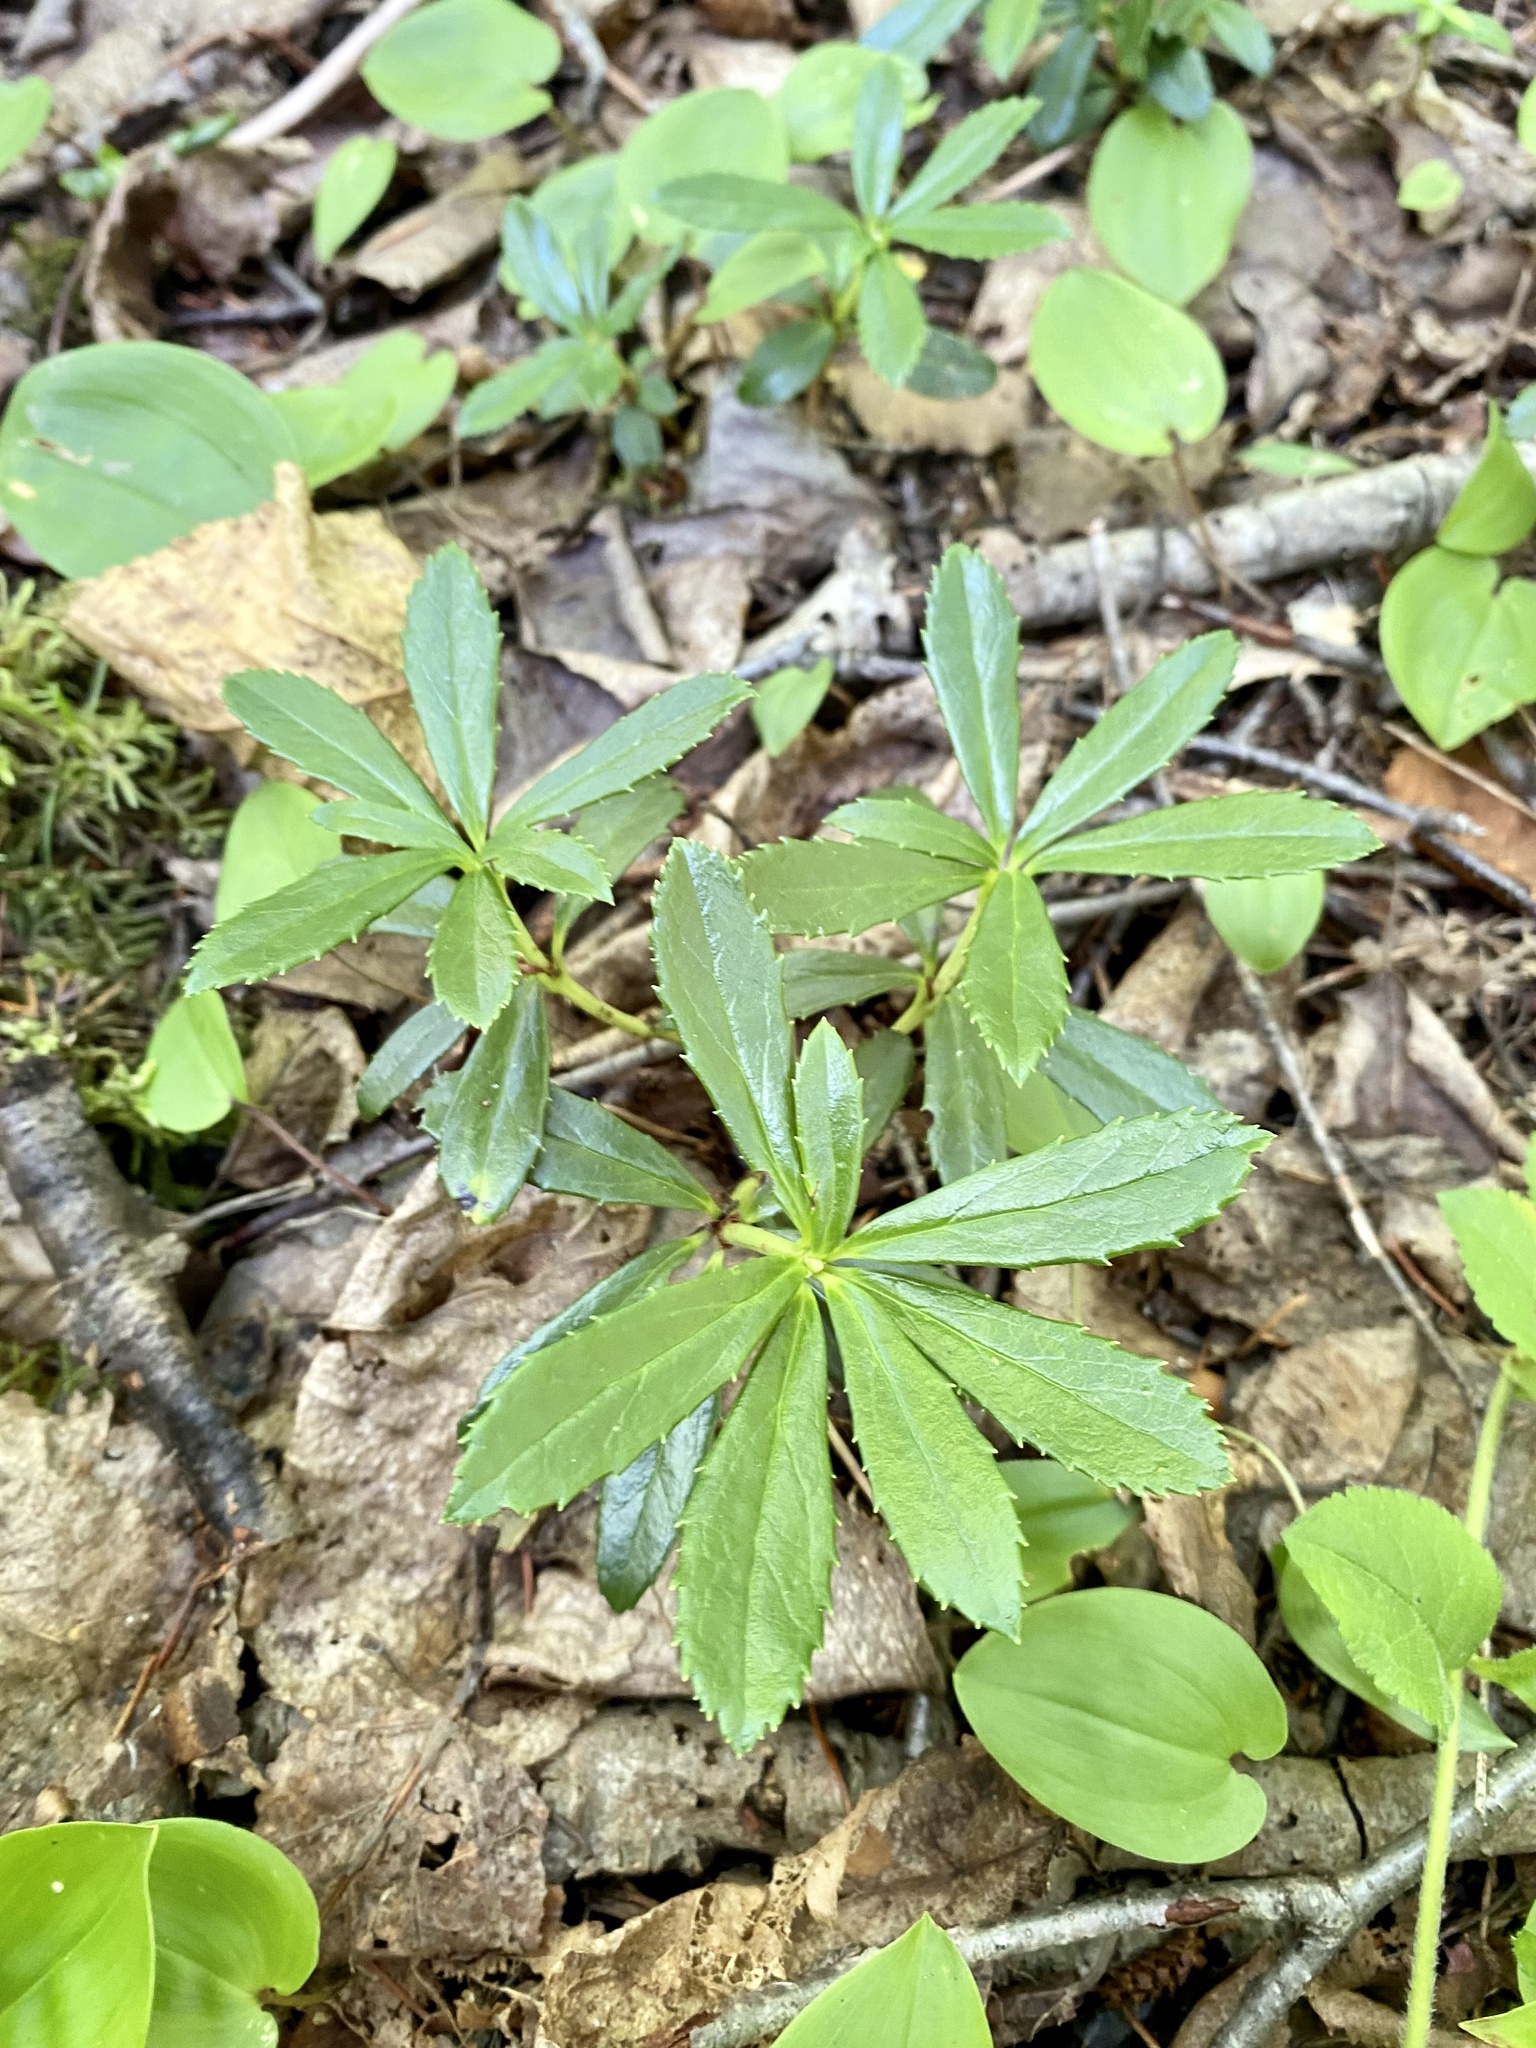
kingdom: Plantae
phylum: Tracheophyta
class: Magnoliopsida
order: Ericales
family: Ericaceae
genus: Chimaphila
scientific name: Chimaphila umbellata
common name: Pipsissewa
